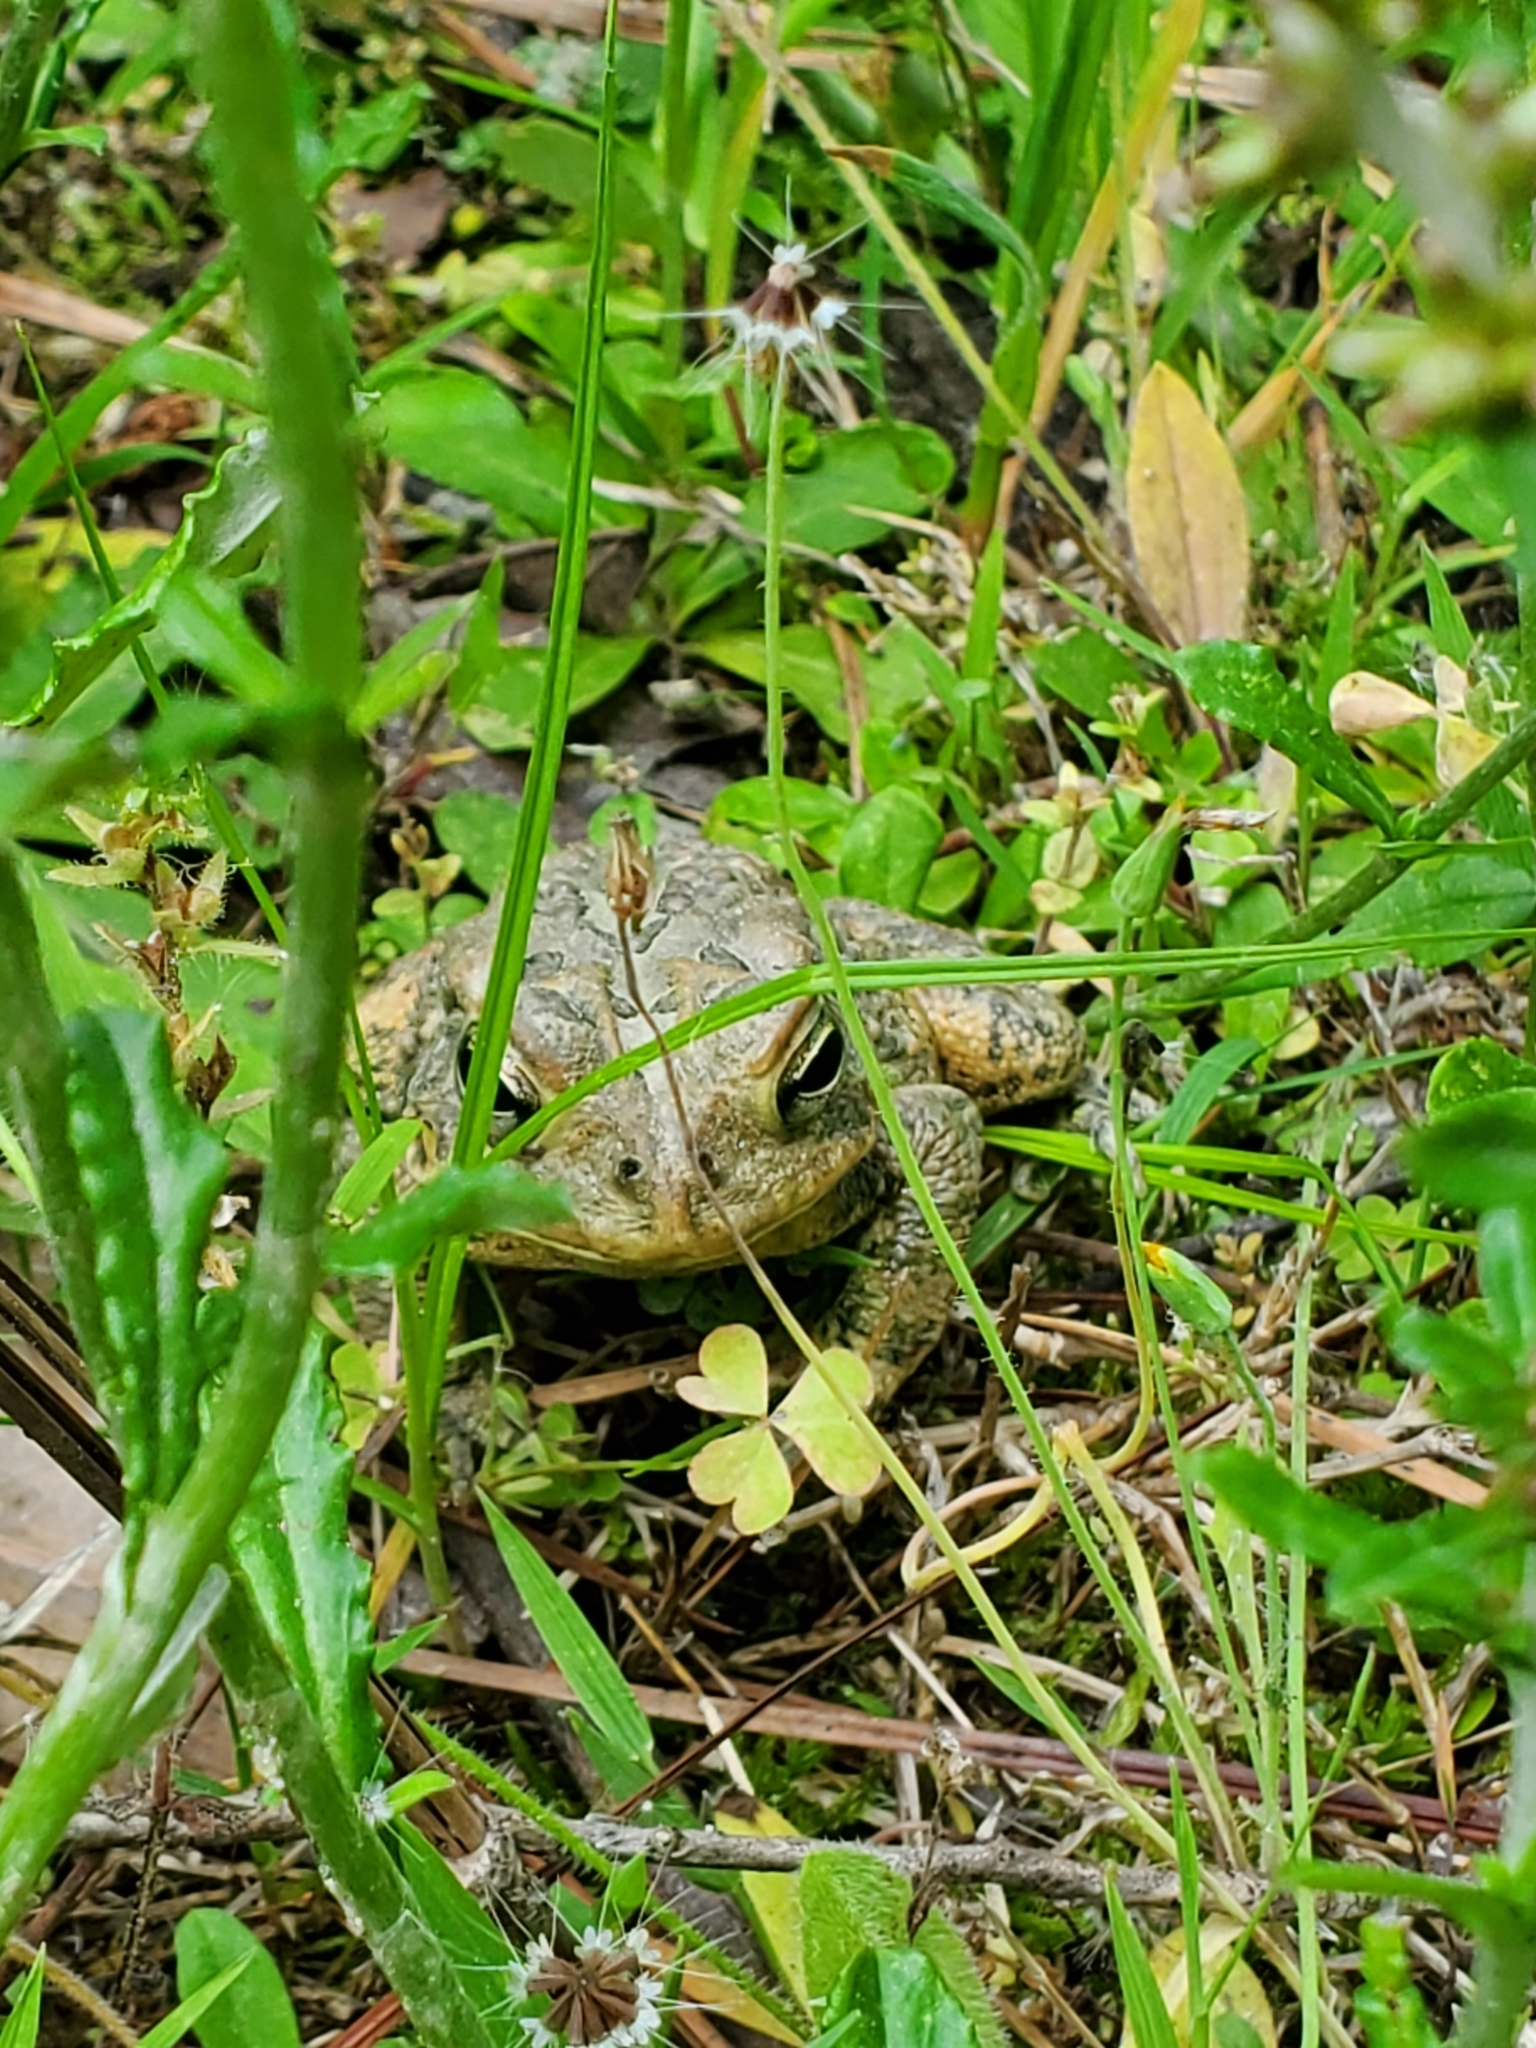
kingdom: Animalia
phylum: Chordata
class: Amphibia
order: Anura
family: Bufonidae
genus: Anaxyrus
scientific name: Anaxyrus terrestris
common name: Southern toad
